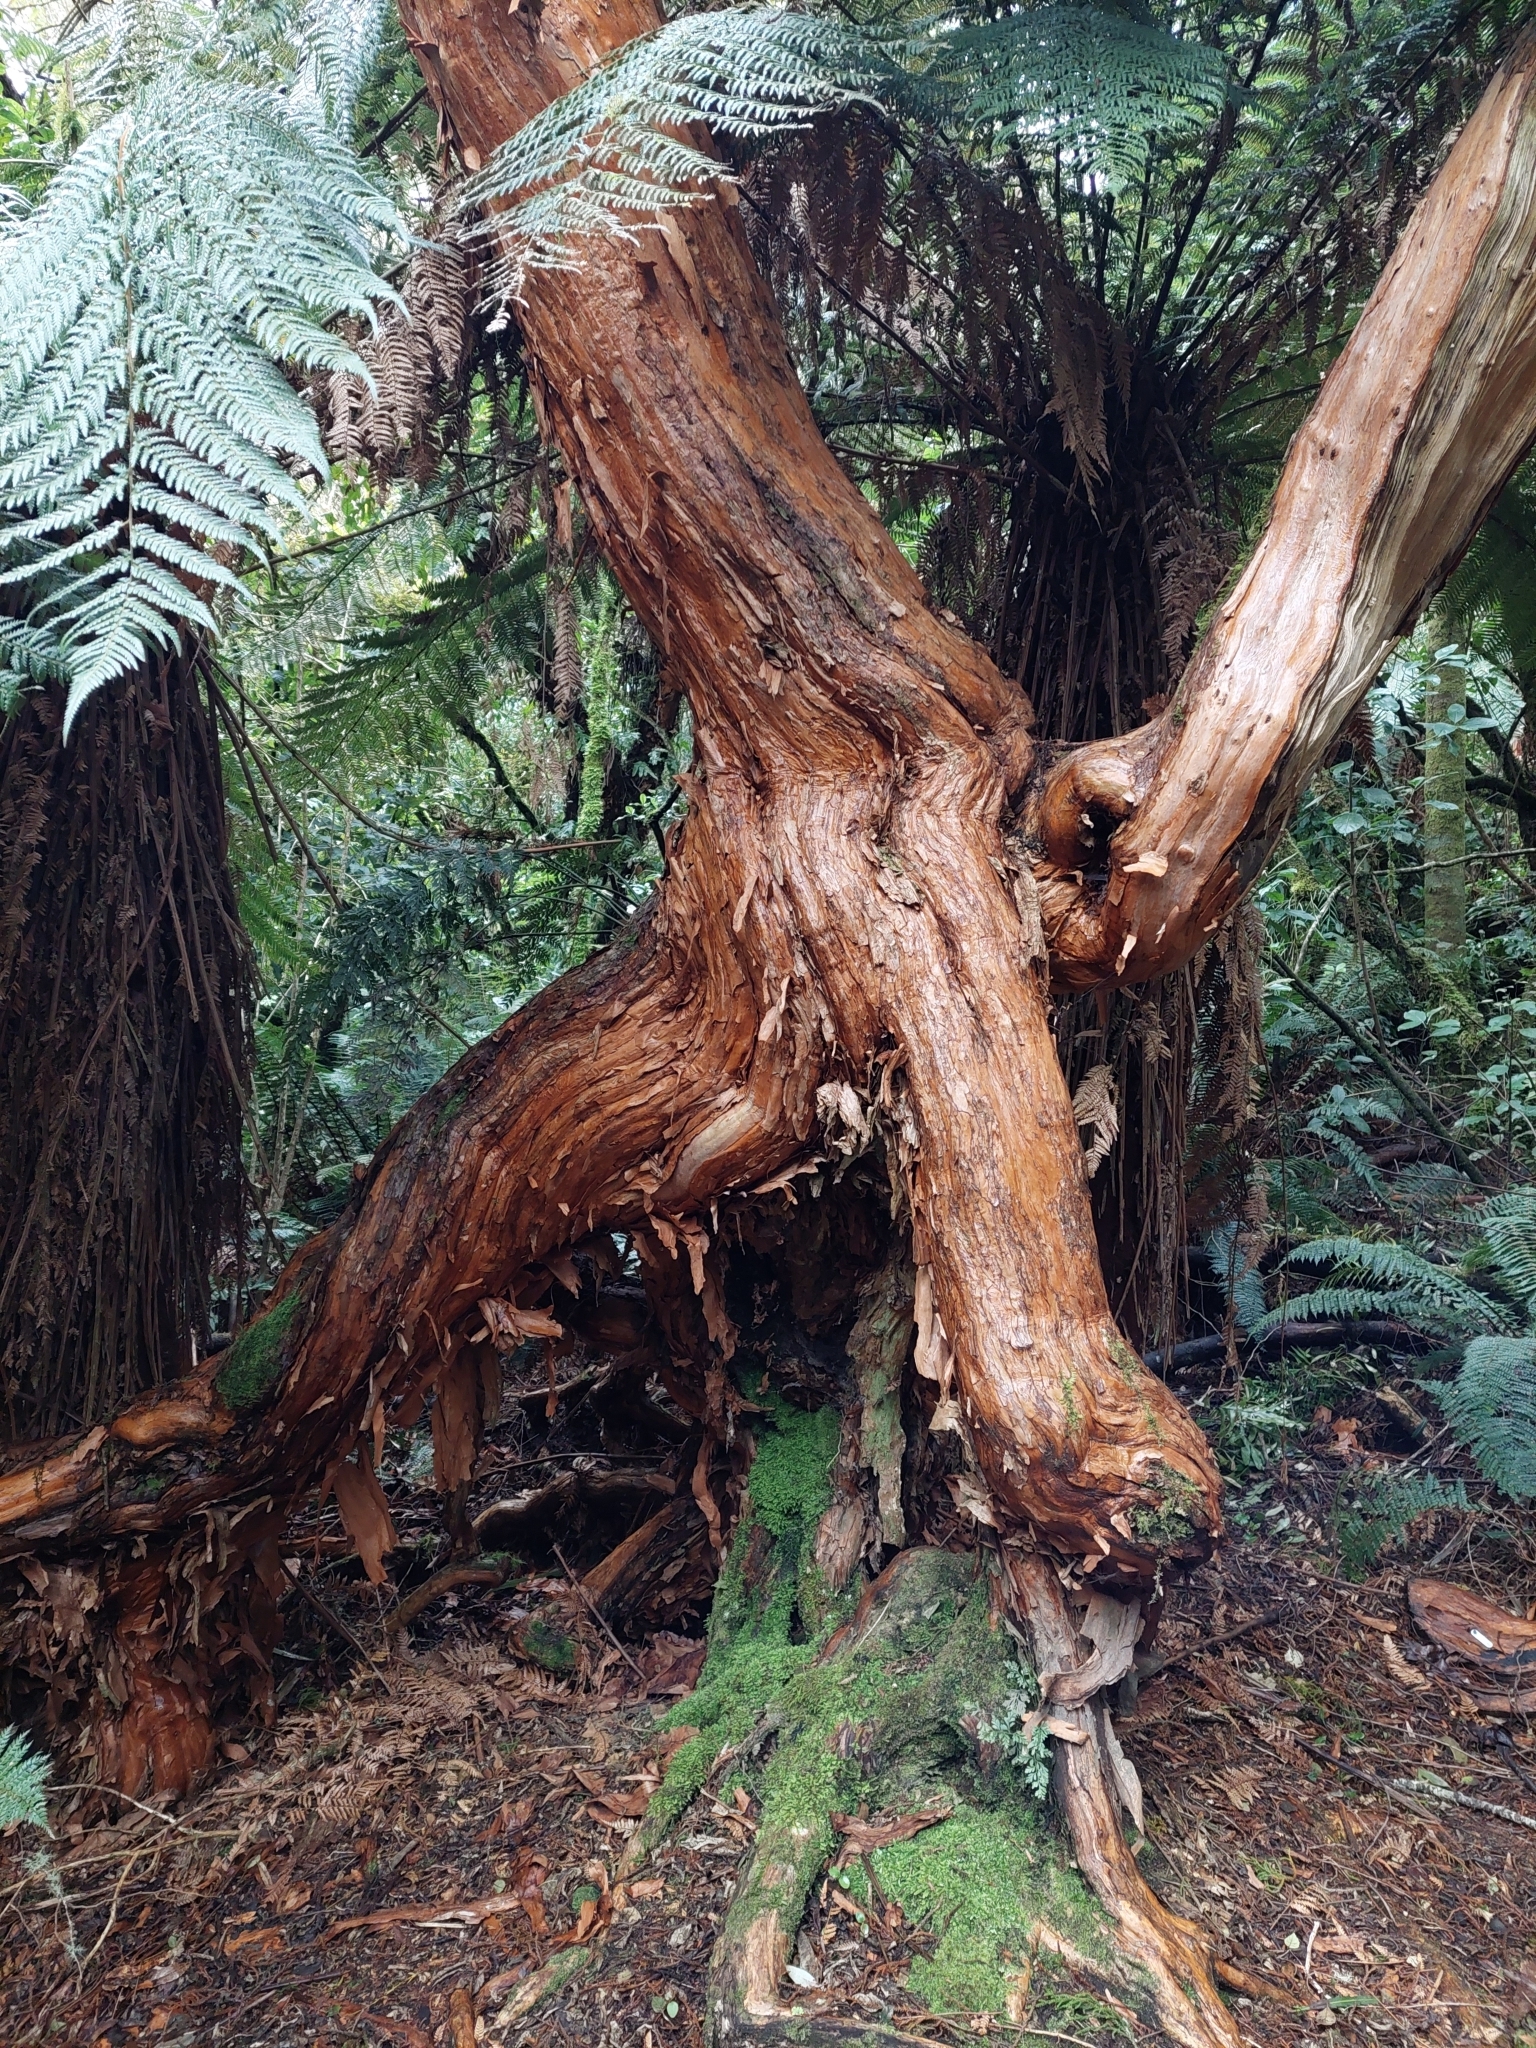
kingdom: Plantae
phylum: Tracheophyta
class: Magnoliopsida
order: Myrtales
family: Onagraceae
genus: Fuchsia
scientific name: Fuchsia excorticata
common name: Tree fuchsia
